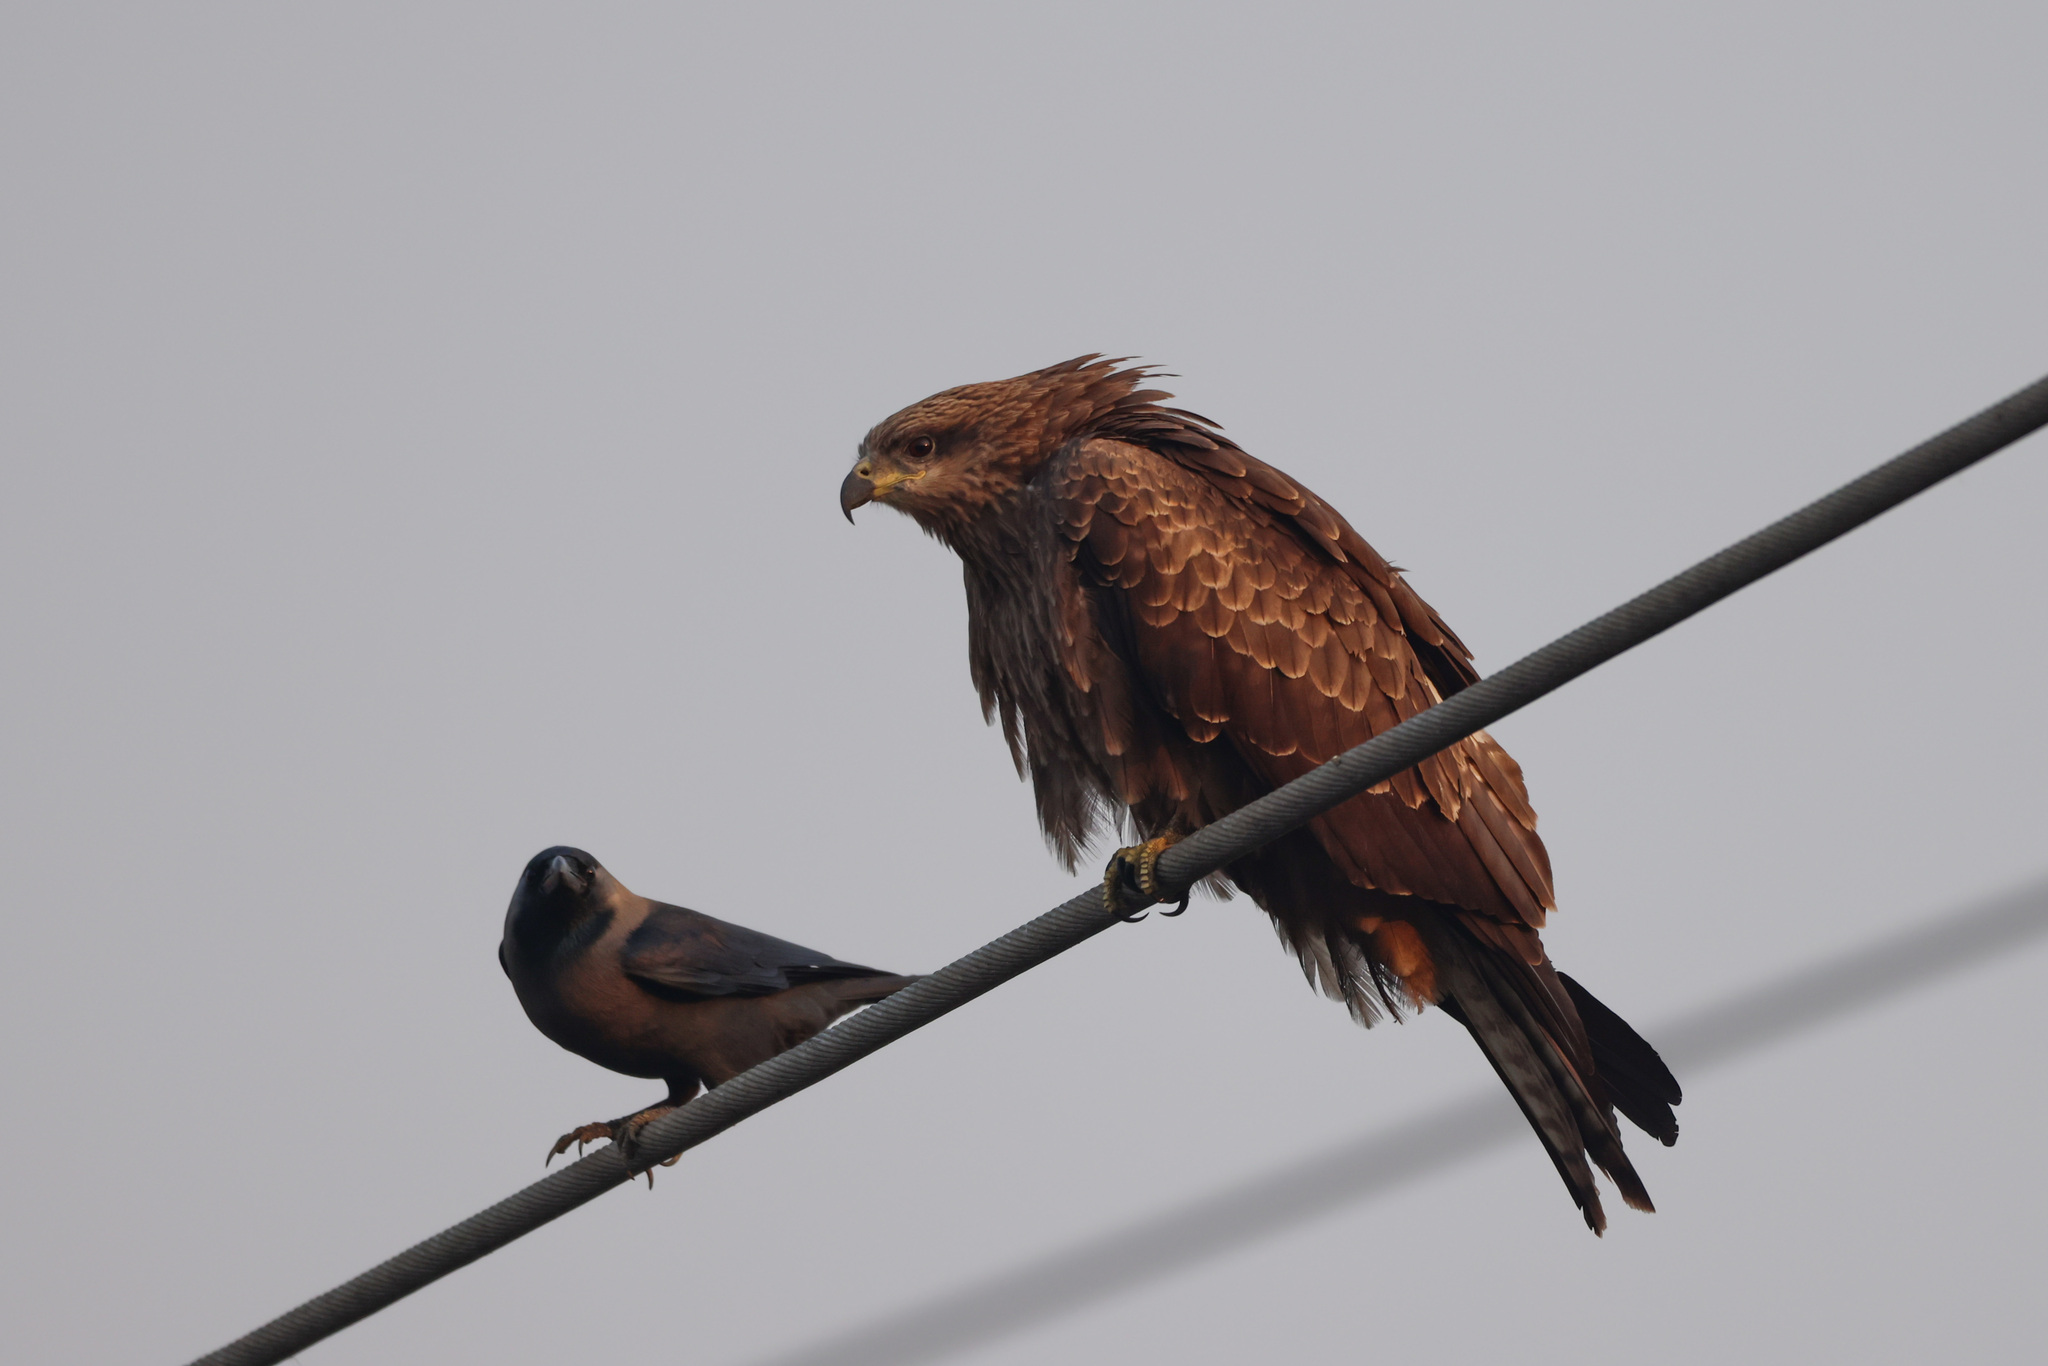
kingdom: Animalia
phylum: Chordata
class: Aves
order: Accipitriformes
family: Accipitridae
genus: Milvus
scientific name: Milvus migrans
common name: Black kite
